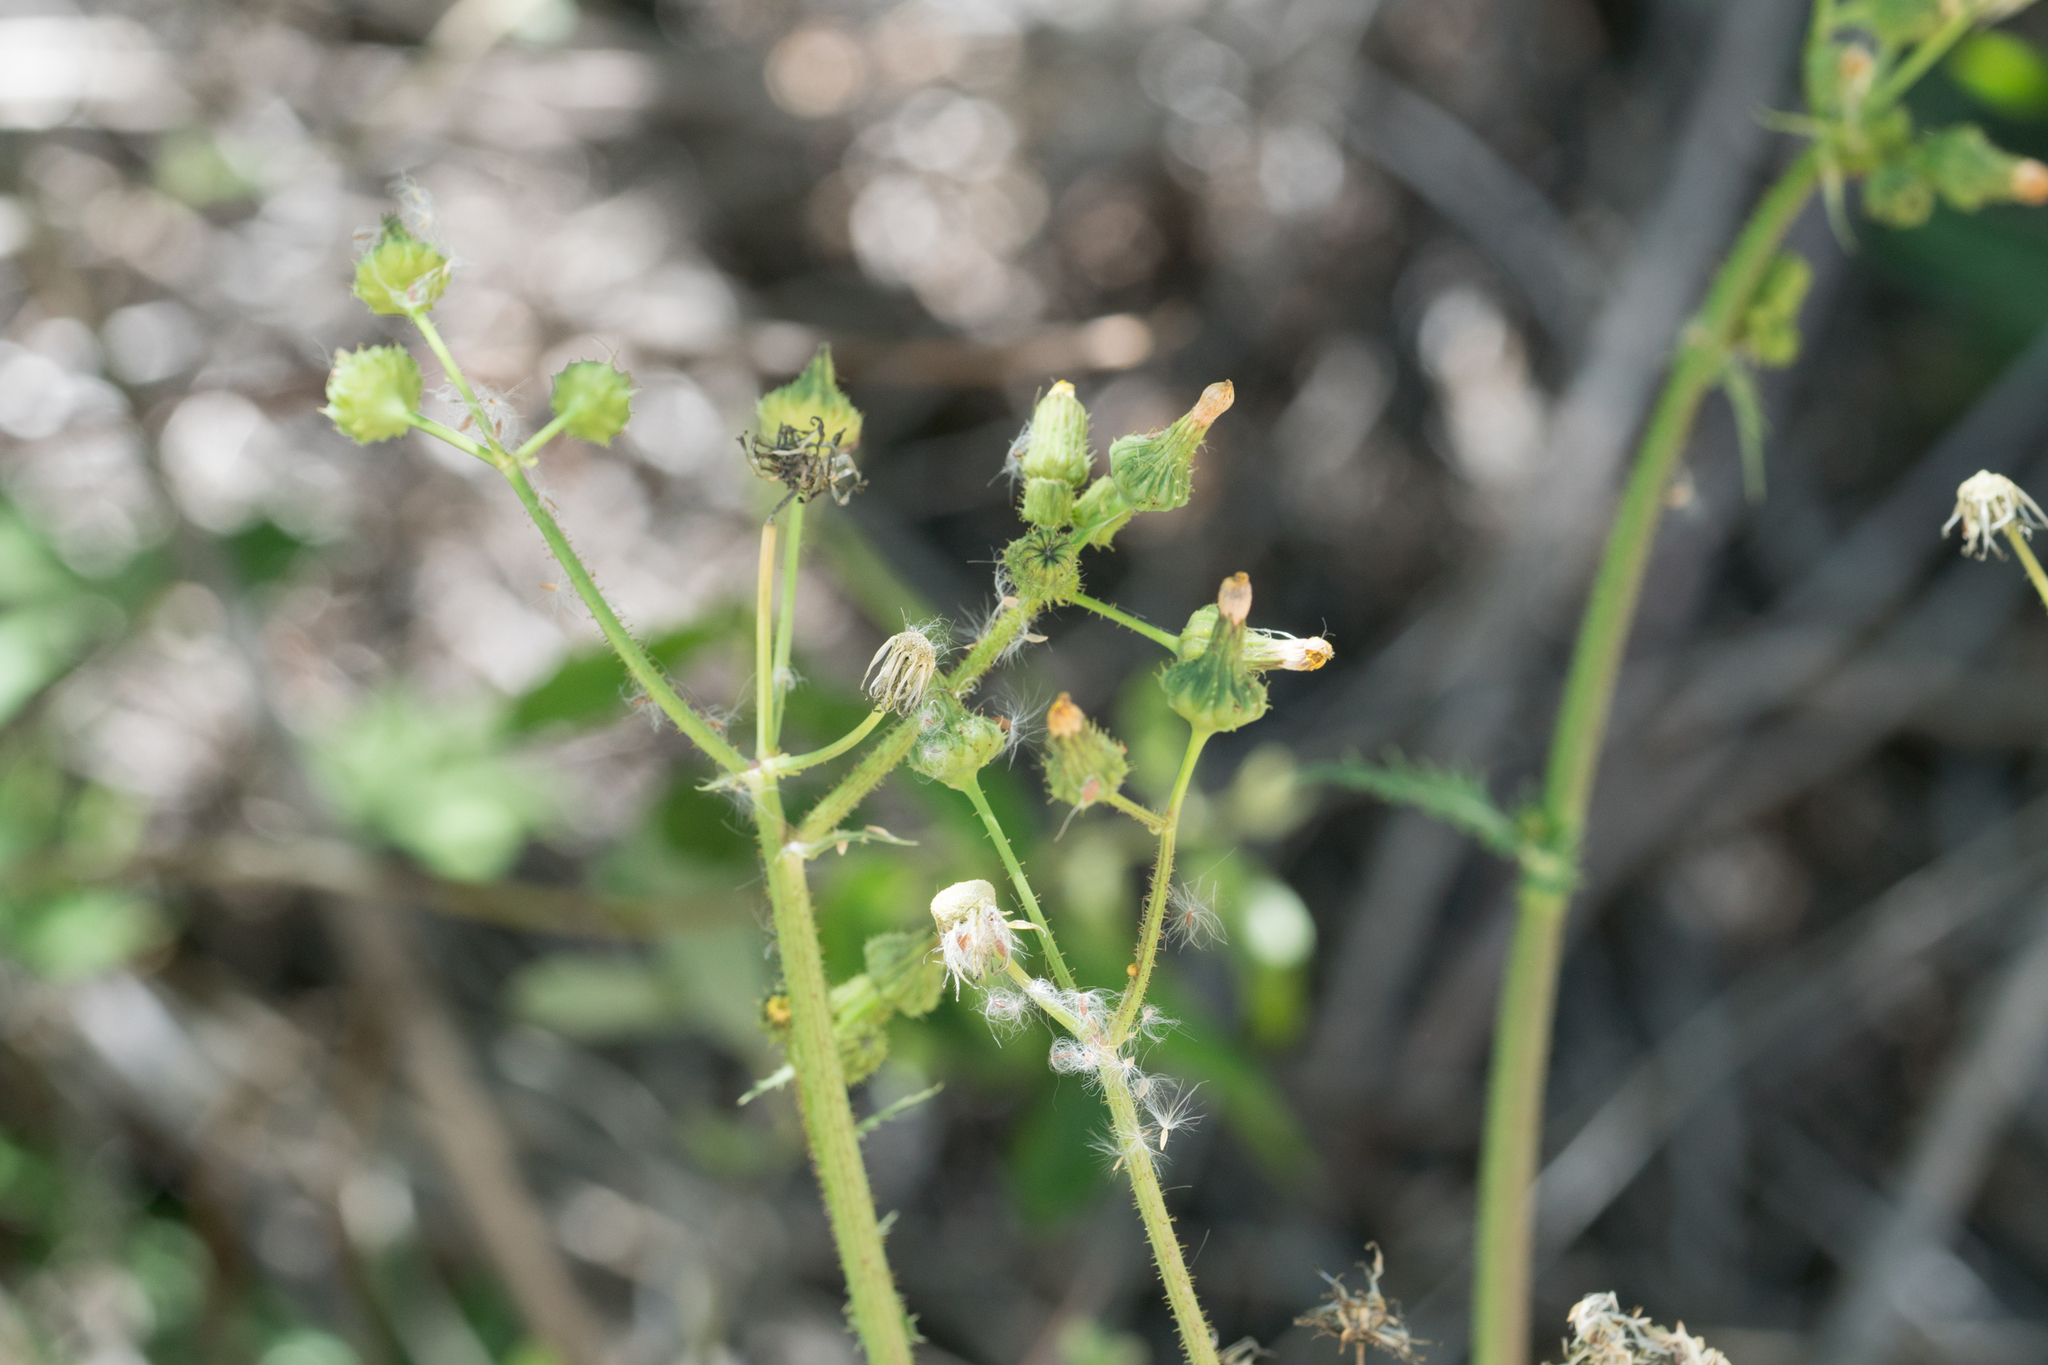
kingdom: Plantae
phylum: Tracheophyta
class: Magnoliopsida
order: Asterales
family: Asteraceae
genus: Sonchus
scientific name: Sonchus asper
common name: Prickly sow-thistle
